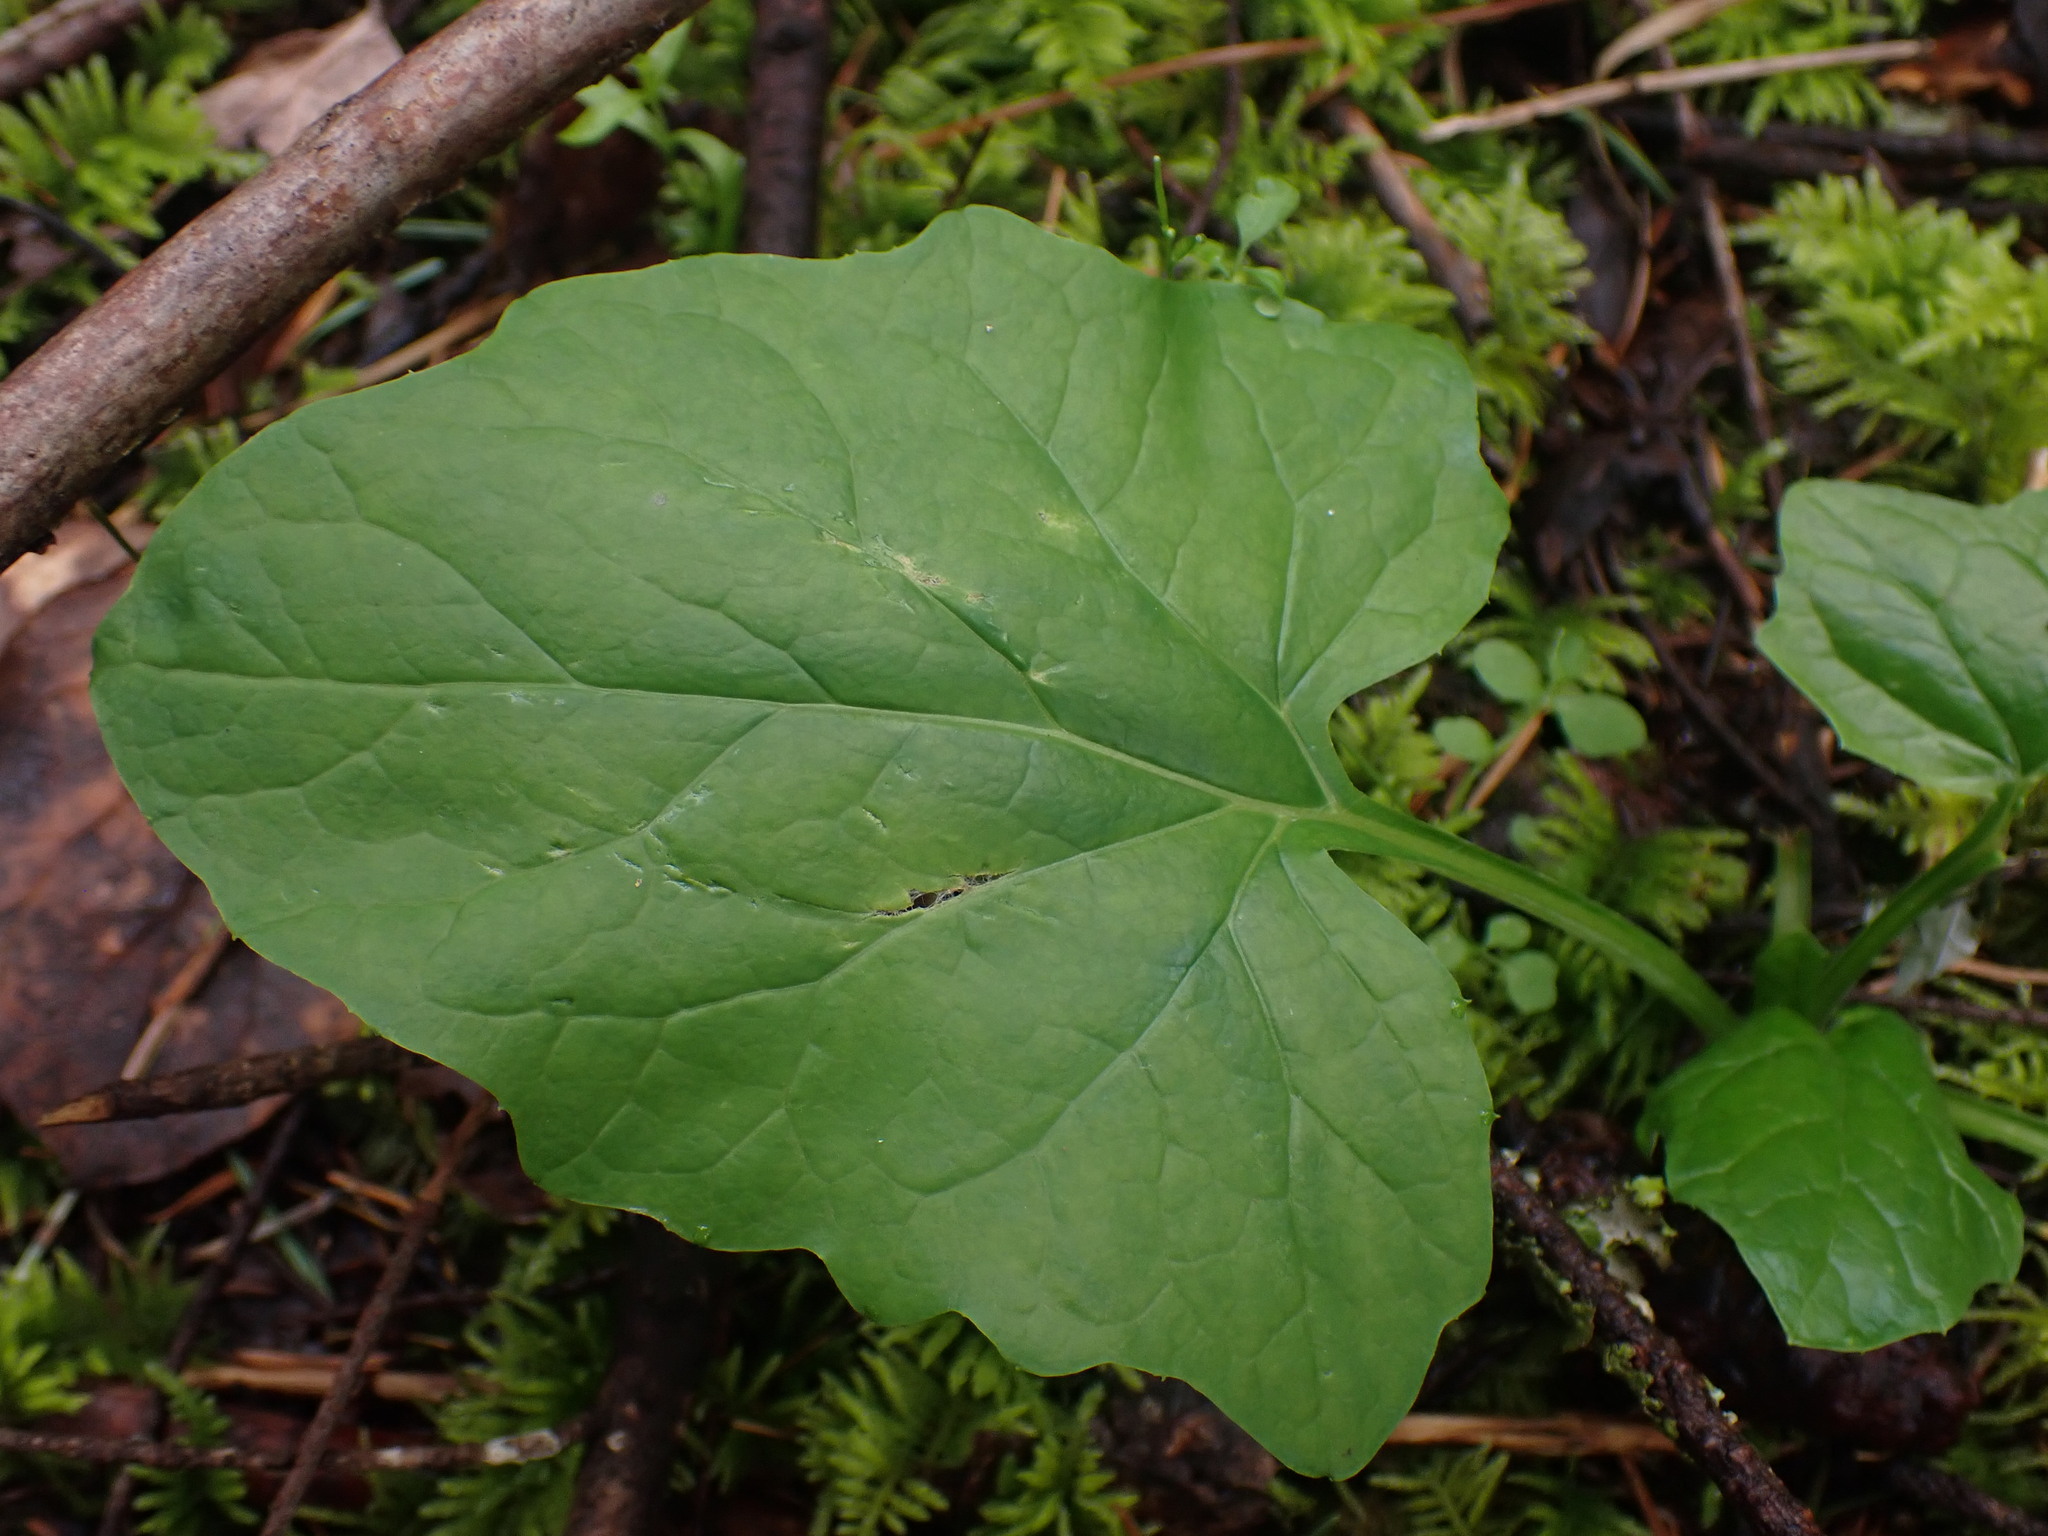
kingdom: Plantae
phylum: Tracheophyta
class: Magnoliopsida
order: Asterales
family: Asteraceae
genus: Adenocaulon
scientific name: Adenocaulon bicolor
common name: Trailplant
